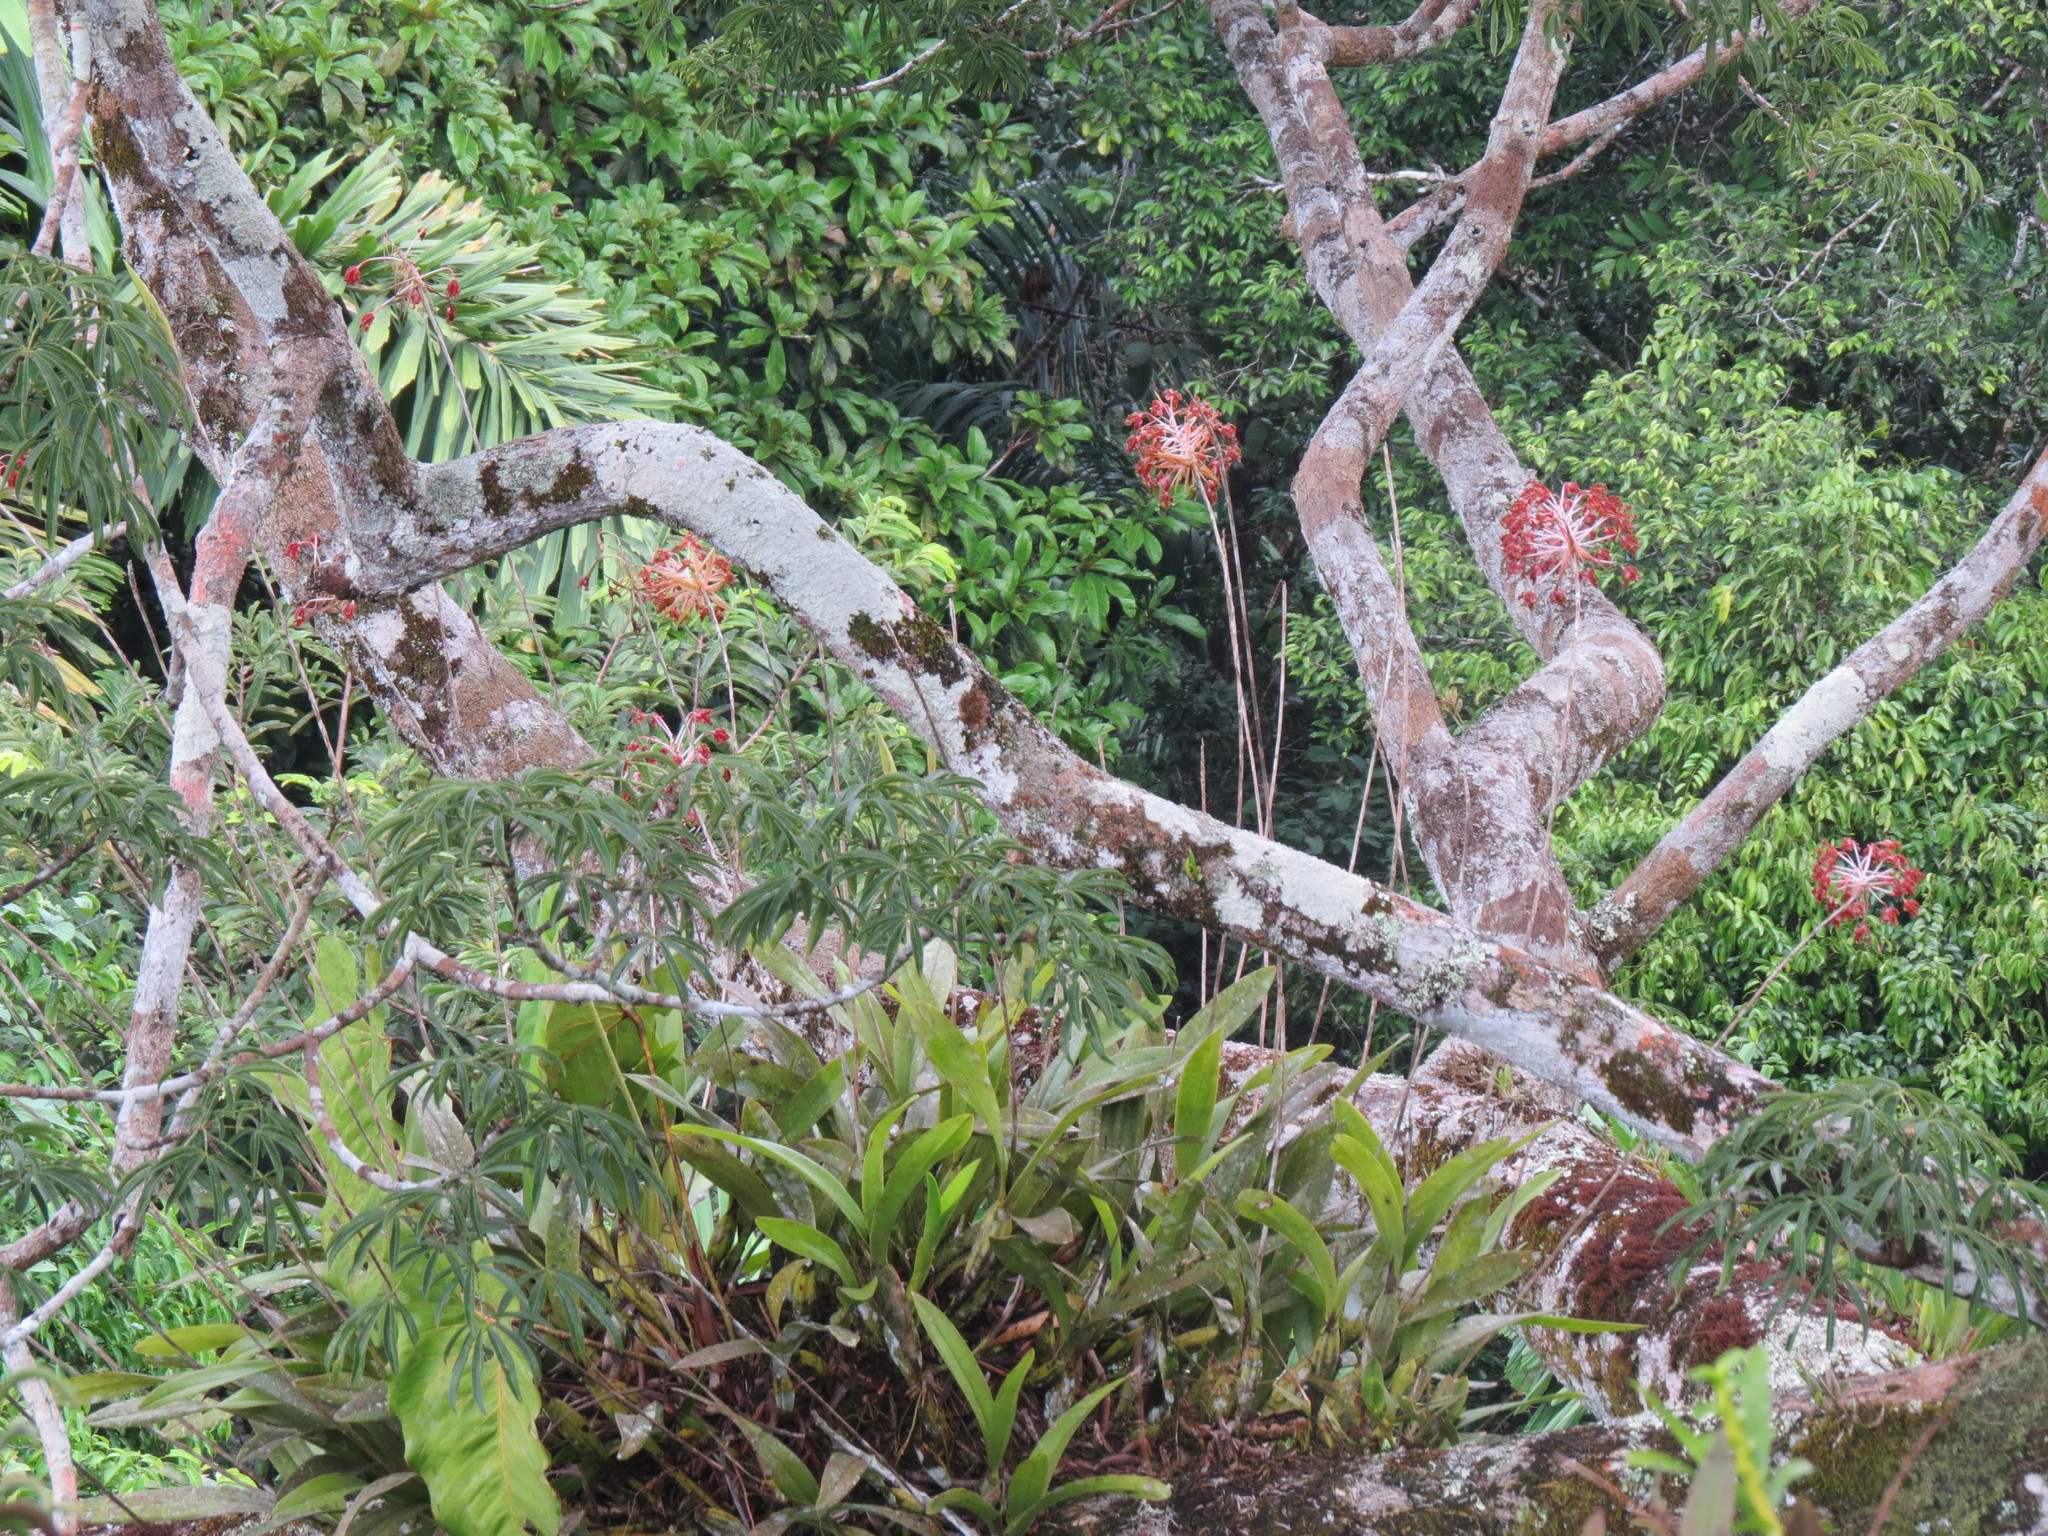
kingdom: Plantae
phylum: Tracheophyta
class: Liliopsida
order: Asparagales
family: Orchidaceae
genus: Laelia
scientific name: Laelia marginata
